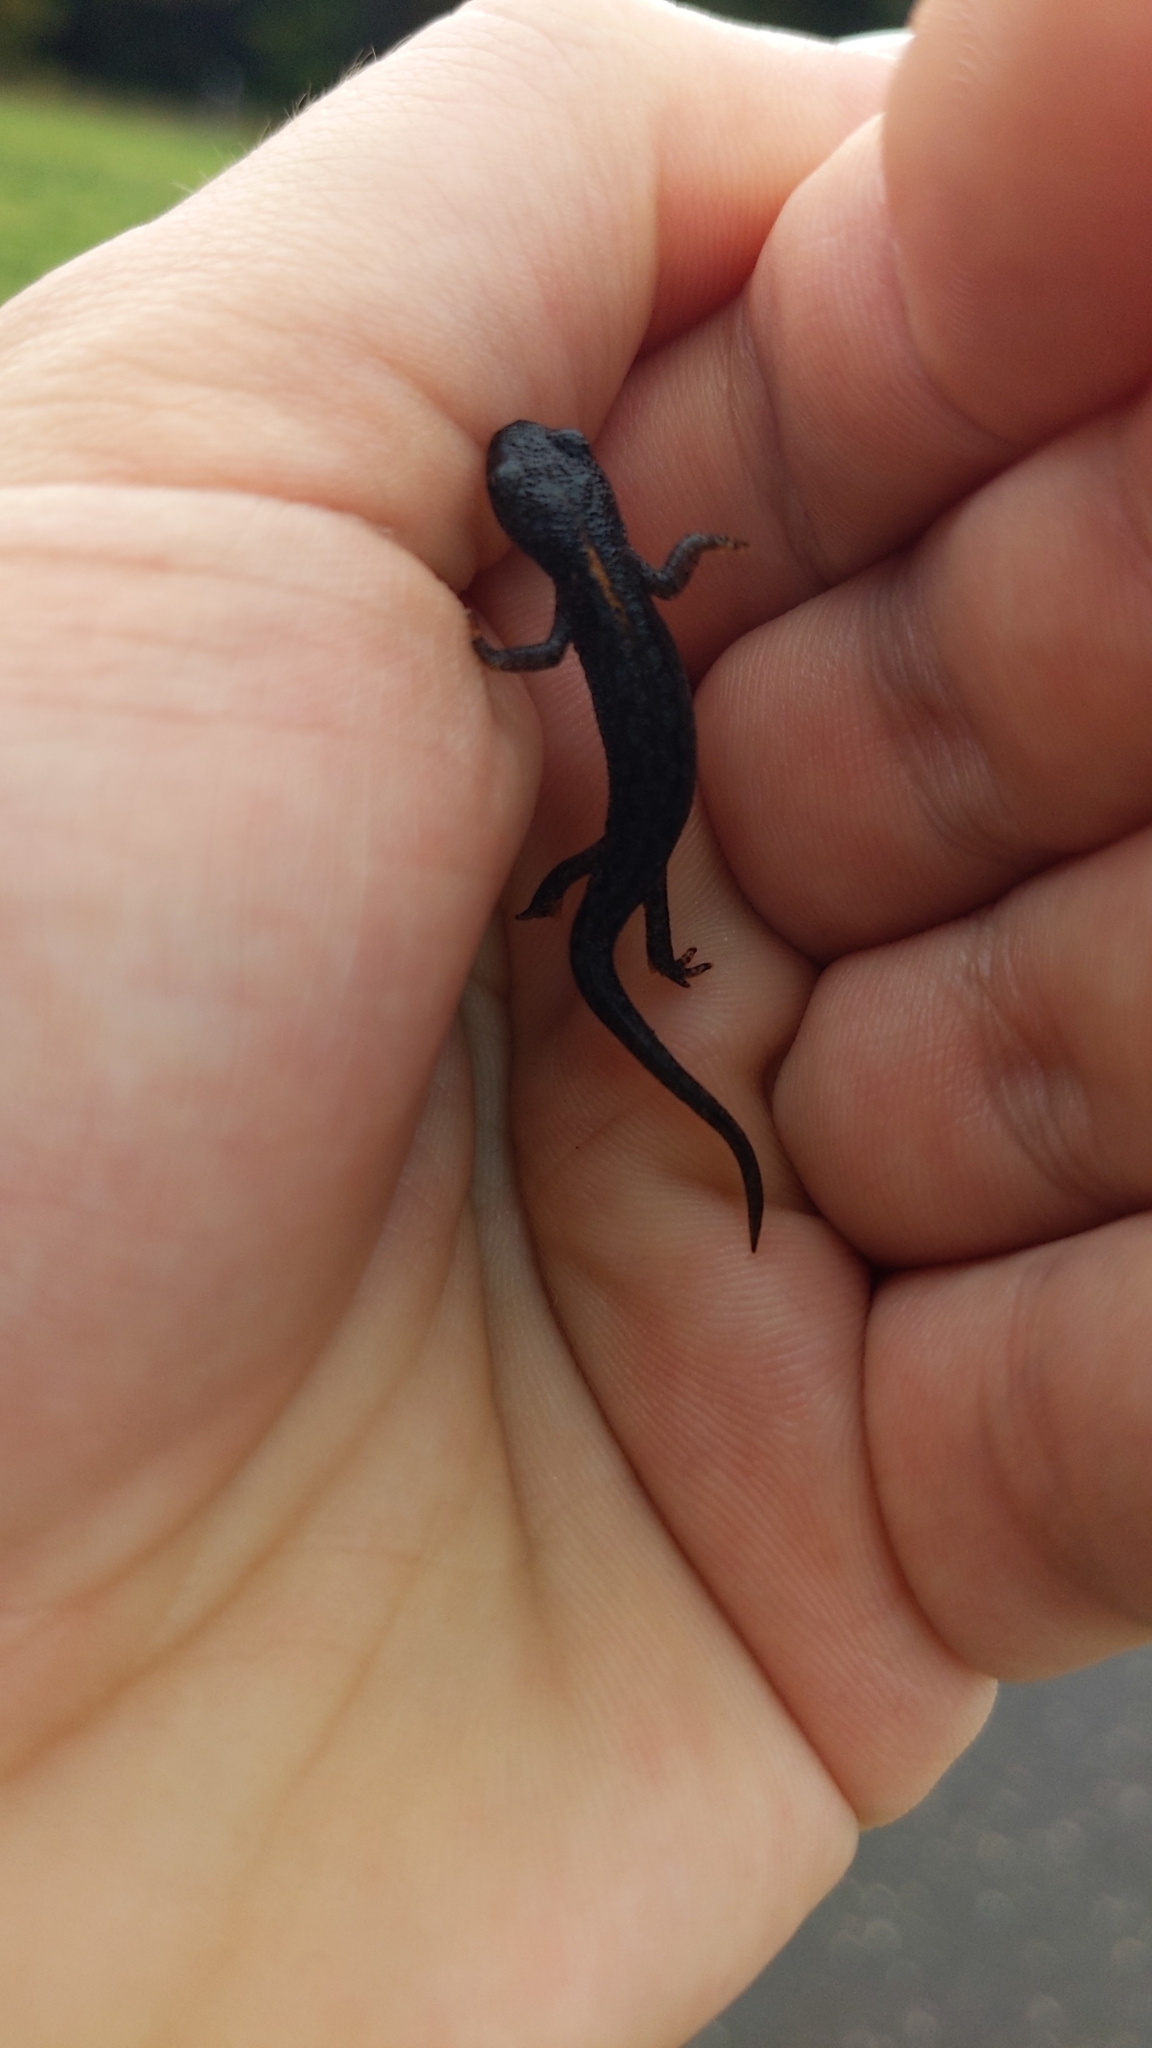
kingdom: Animalia
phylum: Chordata
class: Amphibia
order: Caudata
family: Salamandridae
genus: Ichthyosaura
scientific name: Ichthyosaura alpestris
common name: Alpine newt
